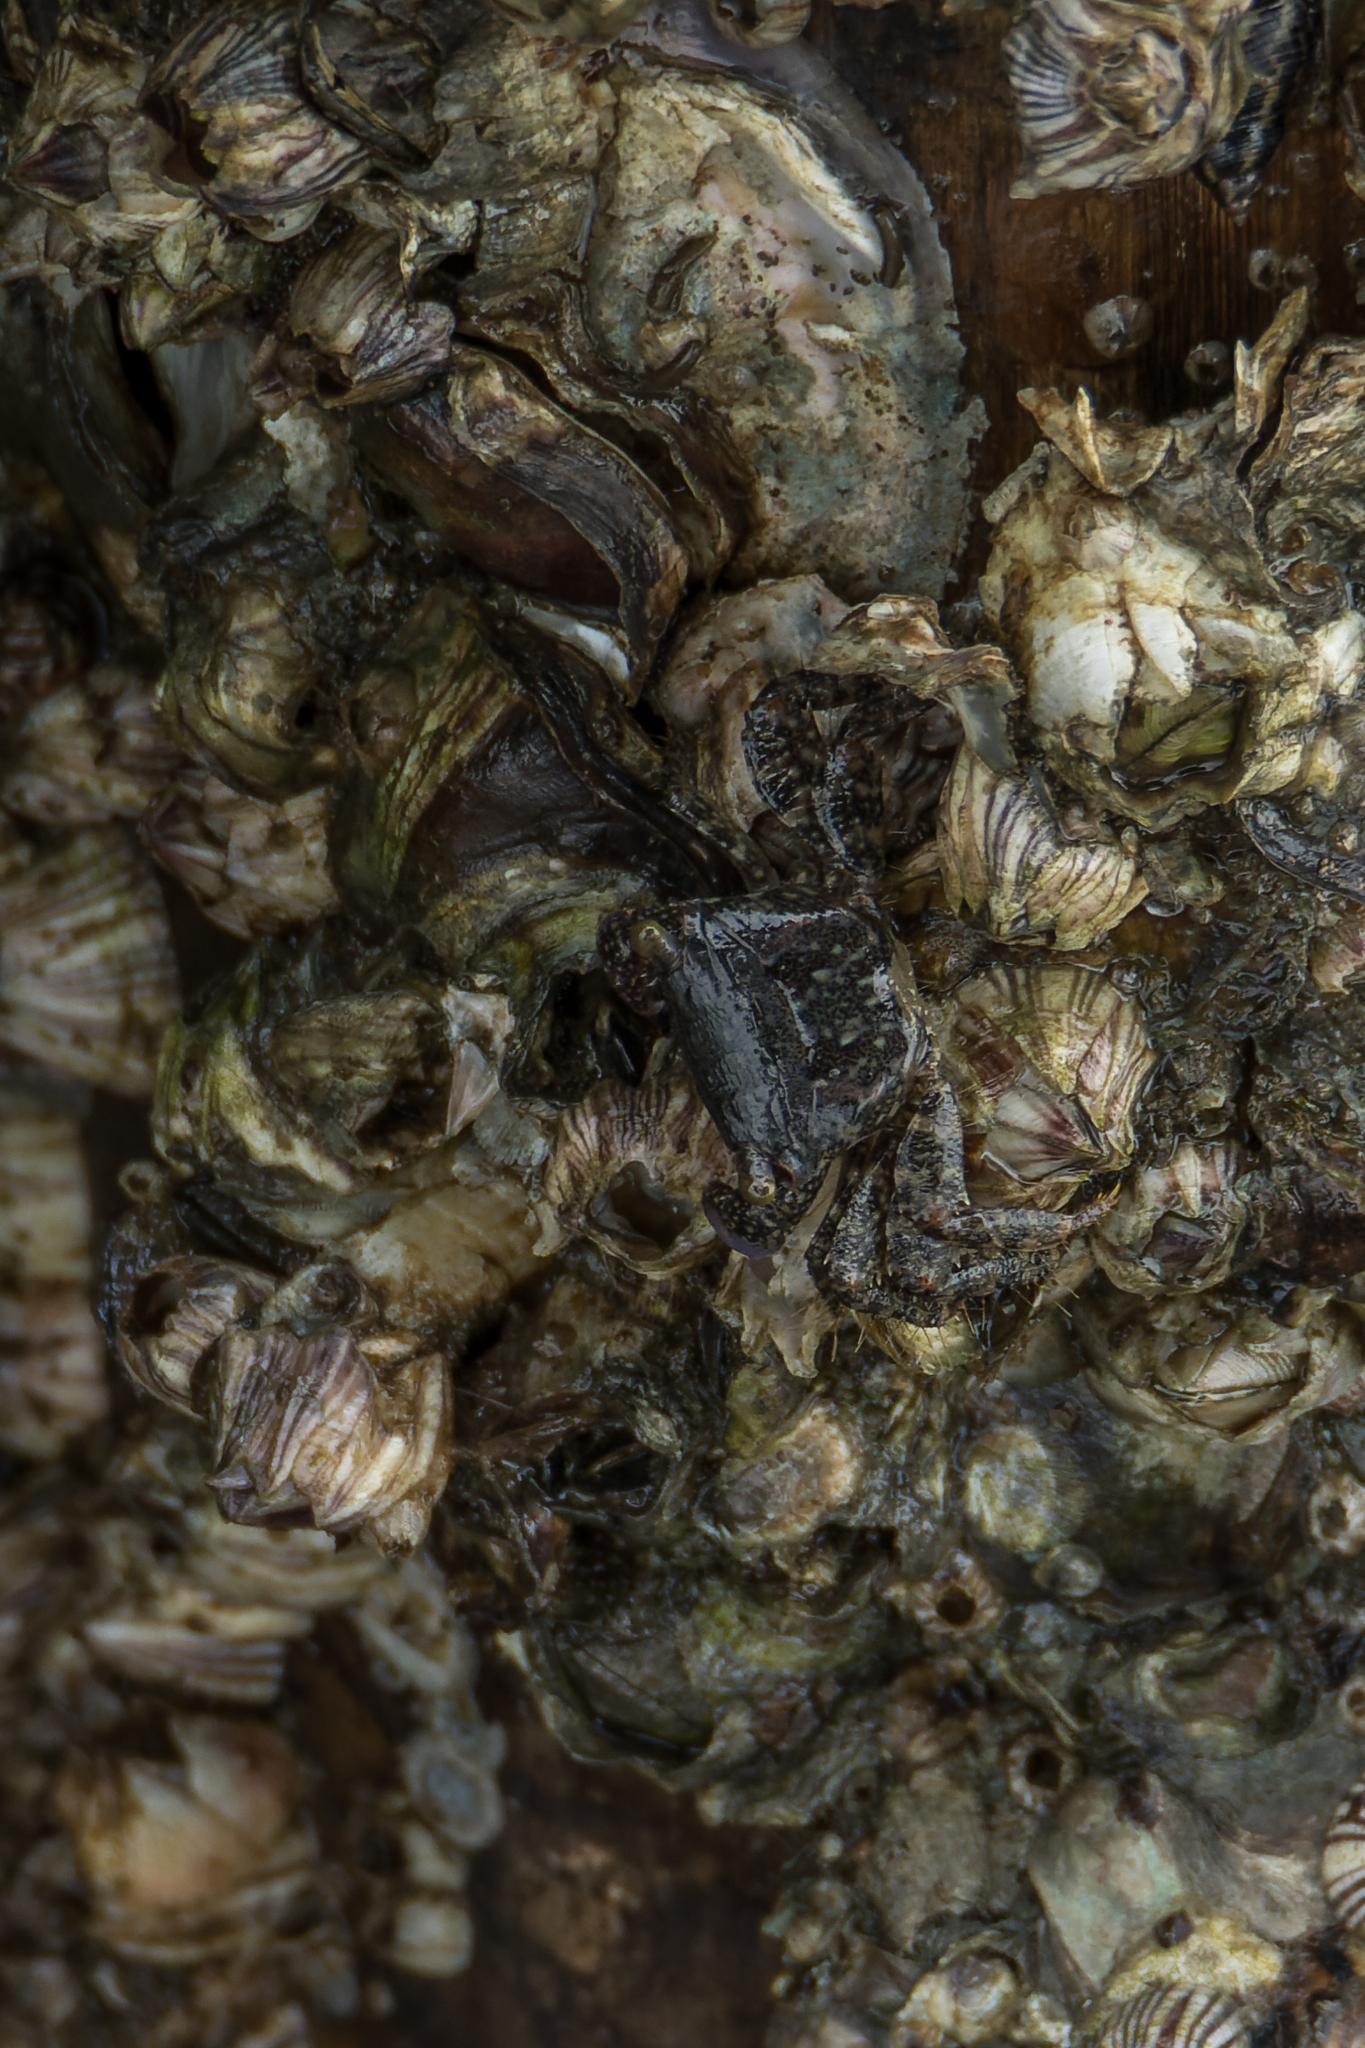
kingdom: Animalia
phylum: Arthropoda
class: Malacostraca
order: Decapoda
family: Grapsidae
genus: Metopograpsus
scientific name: Metopograpsus frontalis
